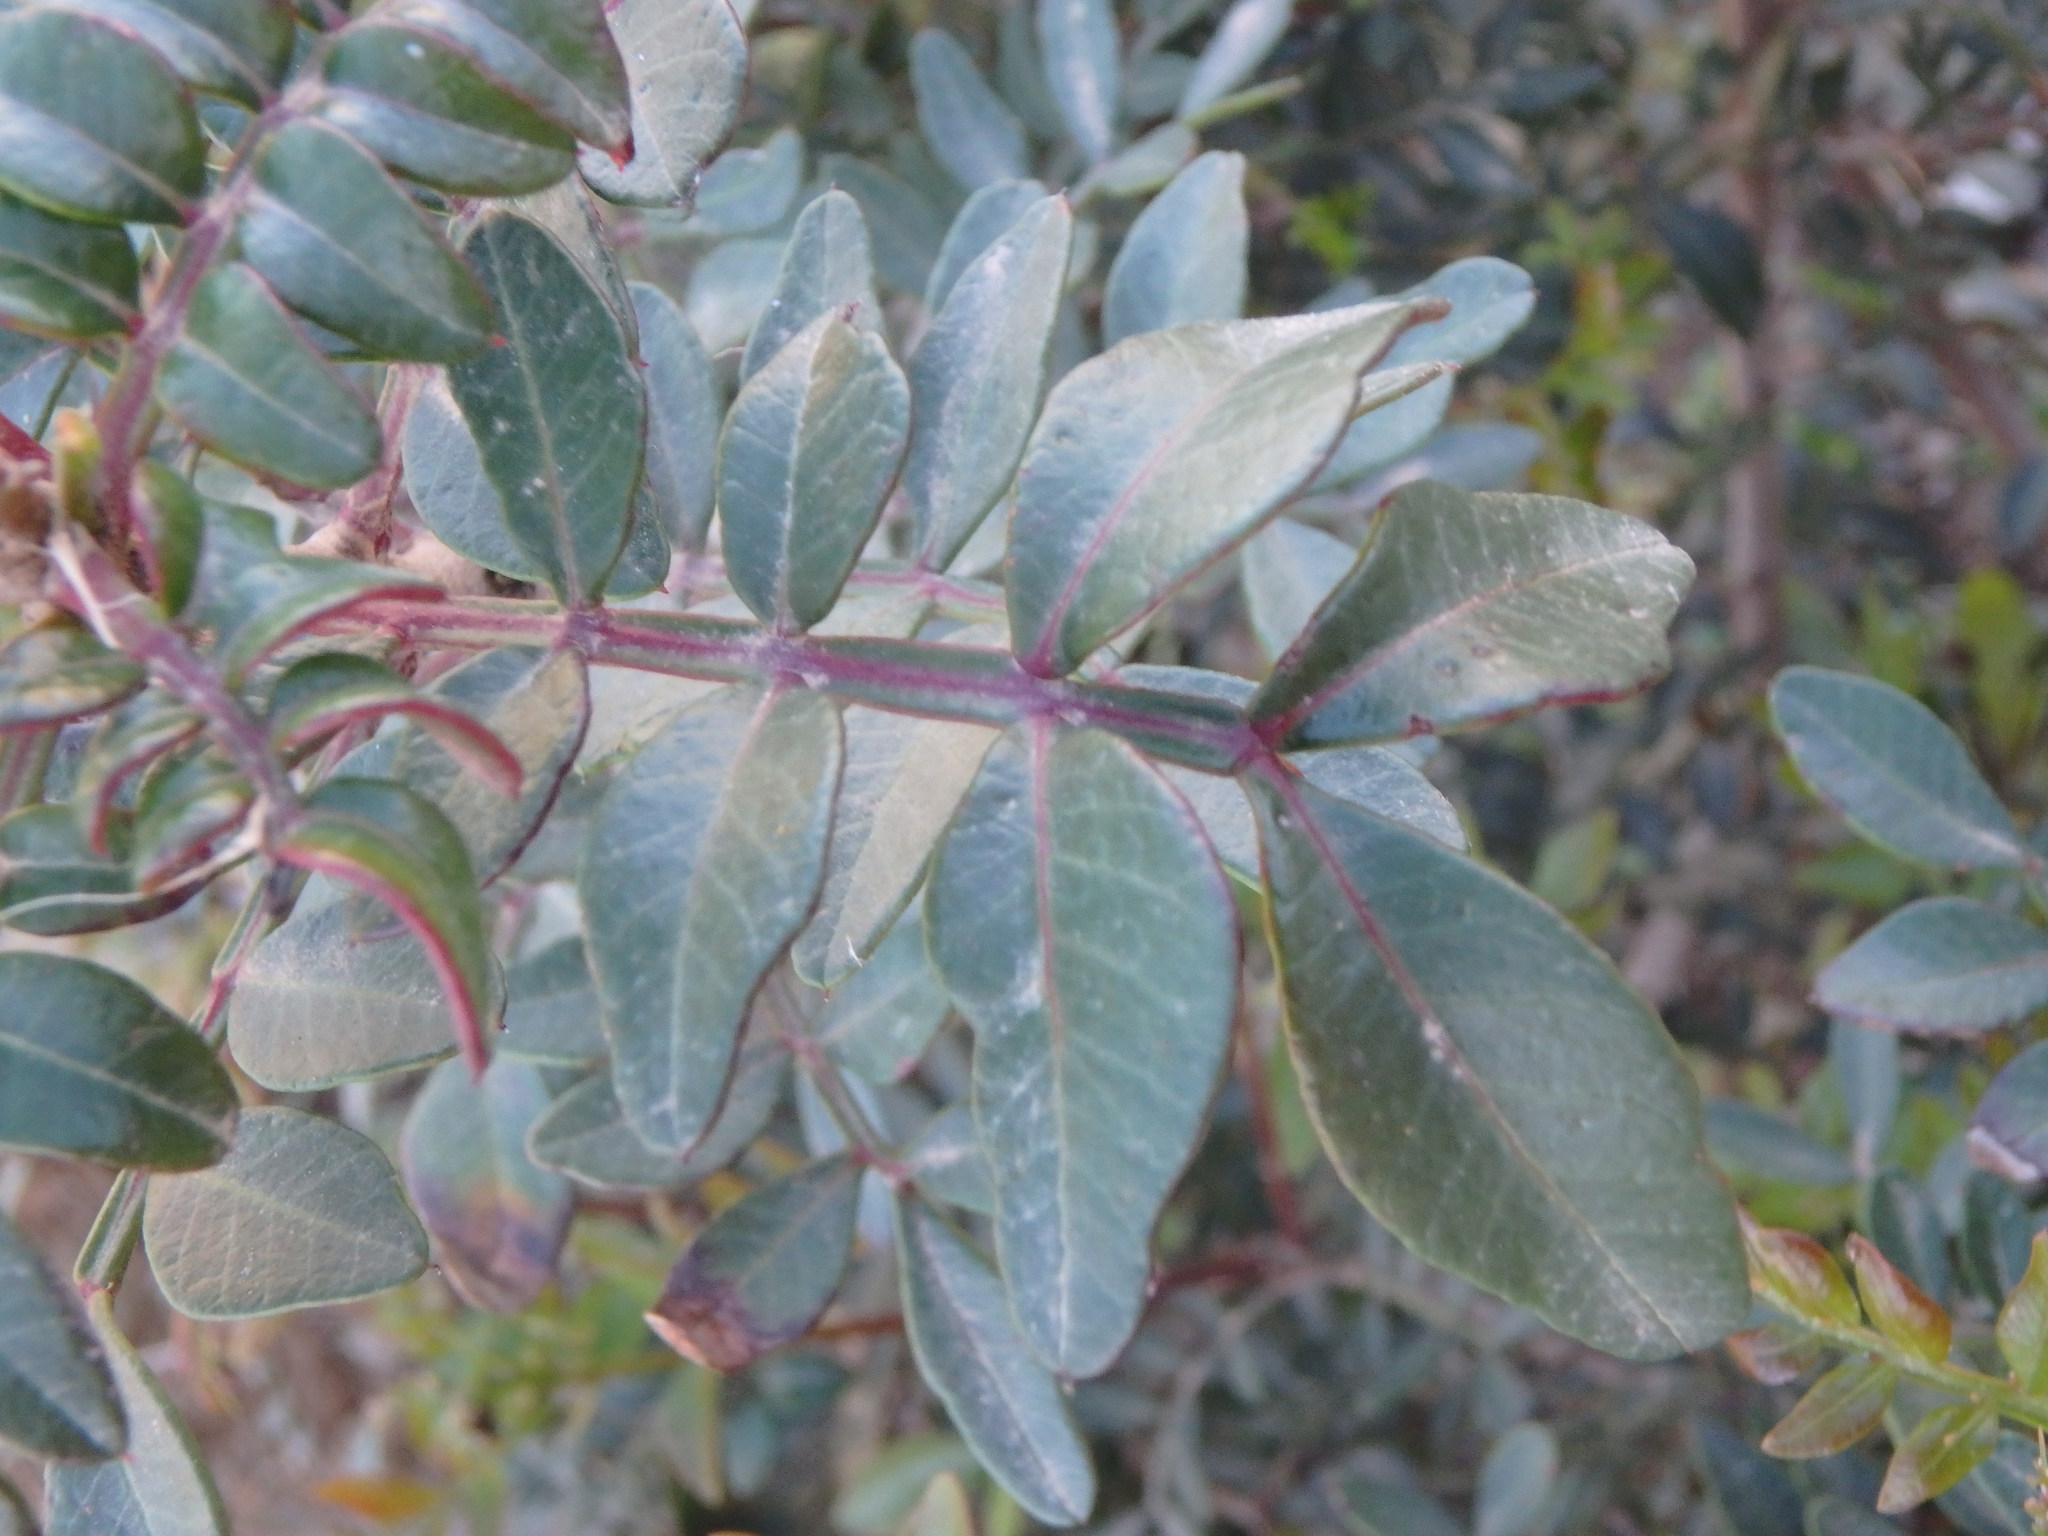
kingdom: Plantae
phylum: Tracheophyta
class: Magnoliopsida
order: Sapindales
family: Anacardiaceae
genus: Pistacia
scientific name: Pistacia lentiscus
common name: Lentisk
